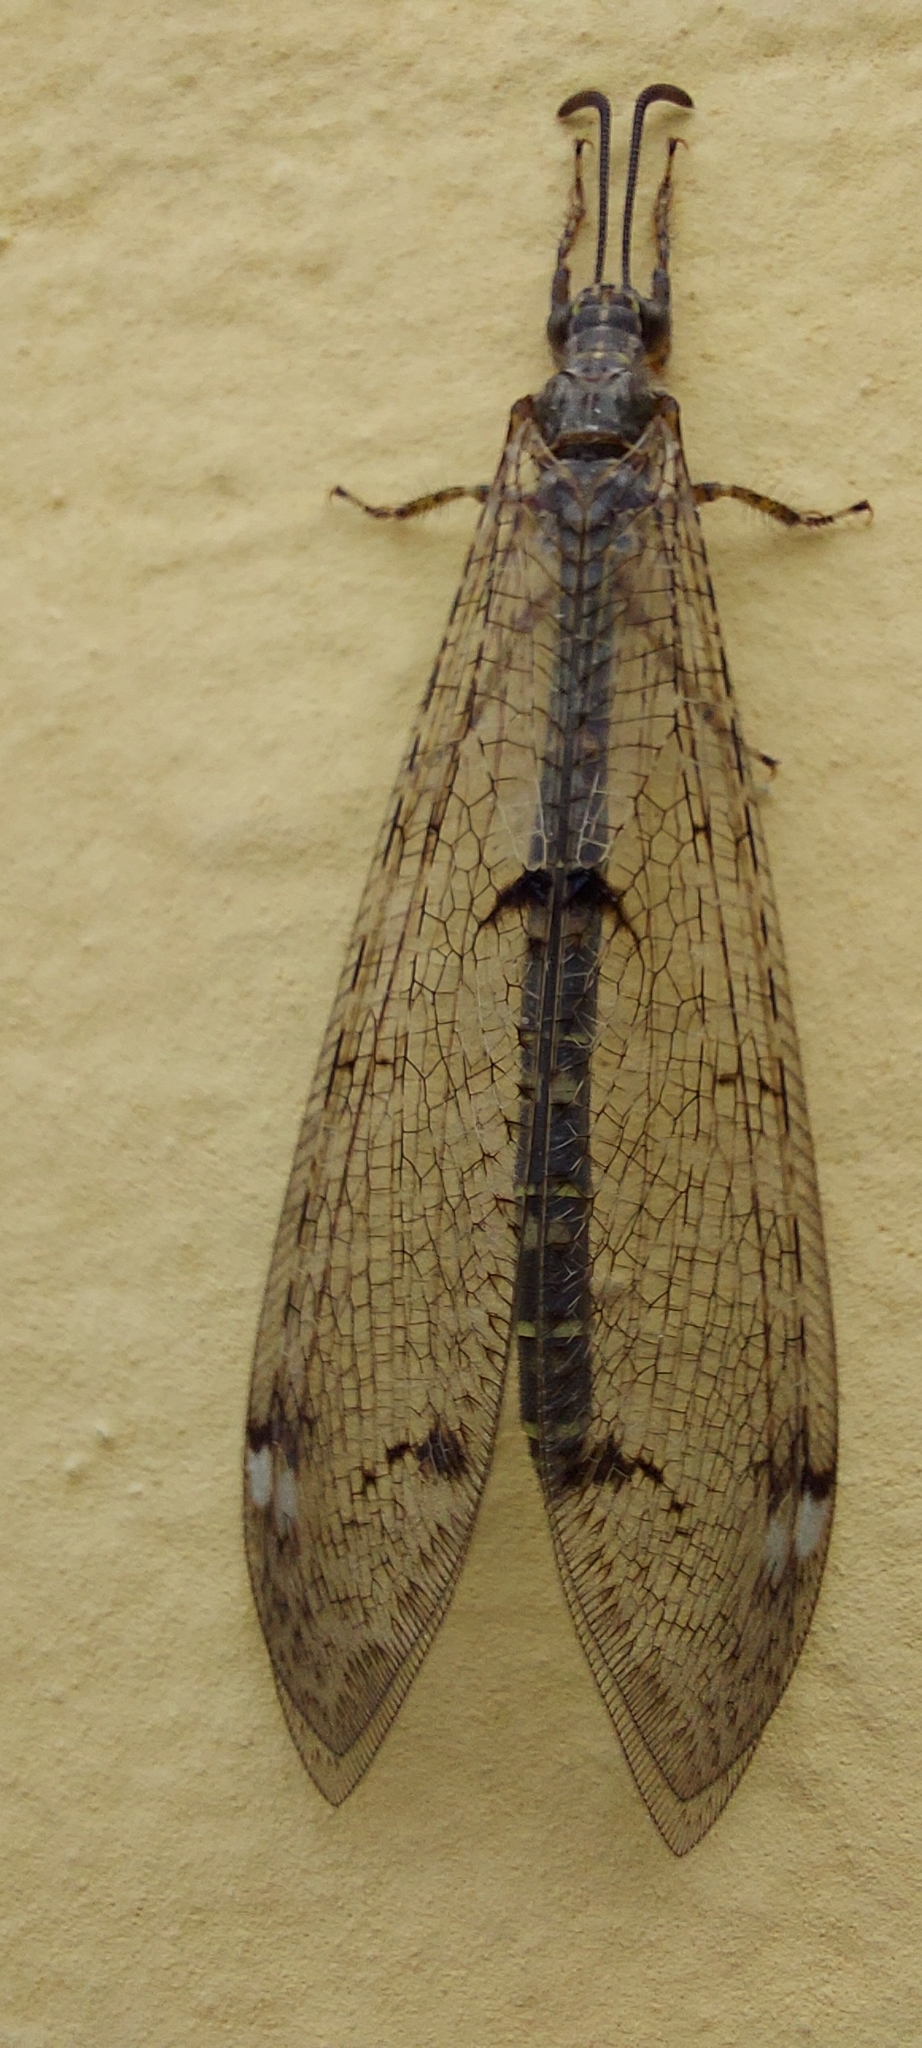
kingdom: Animalia
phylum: Arthropoda
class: Insecta
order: Neuroptera
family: Myrmeleontidae
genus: Distoleon
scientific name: Distoleon tetragrammicus
